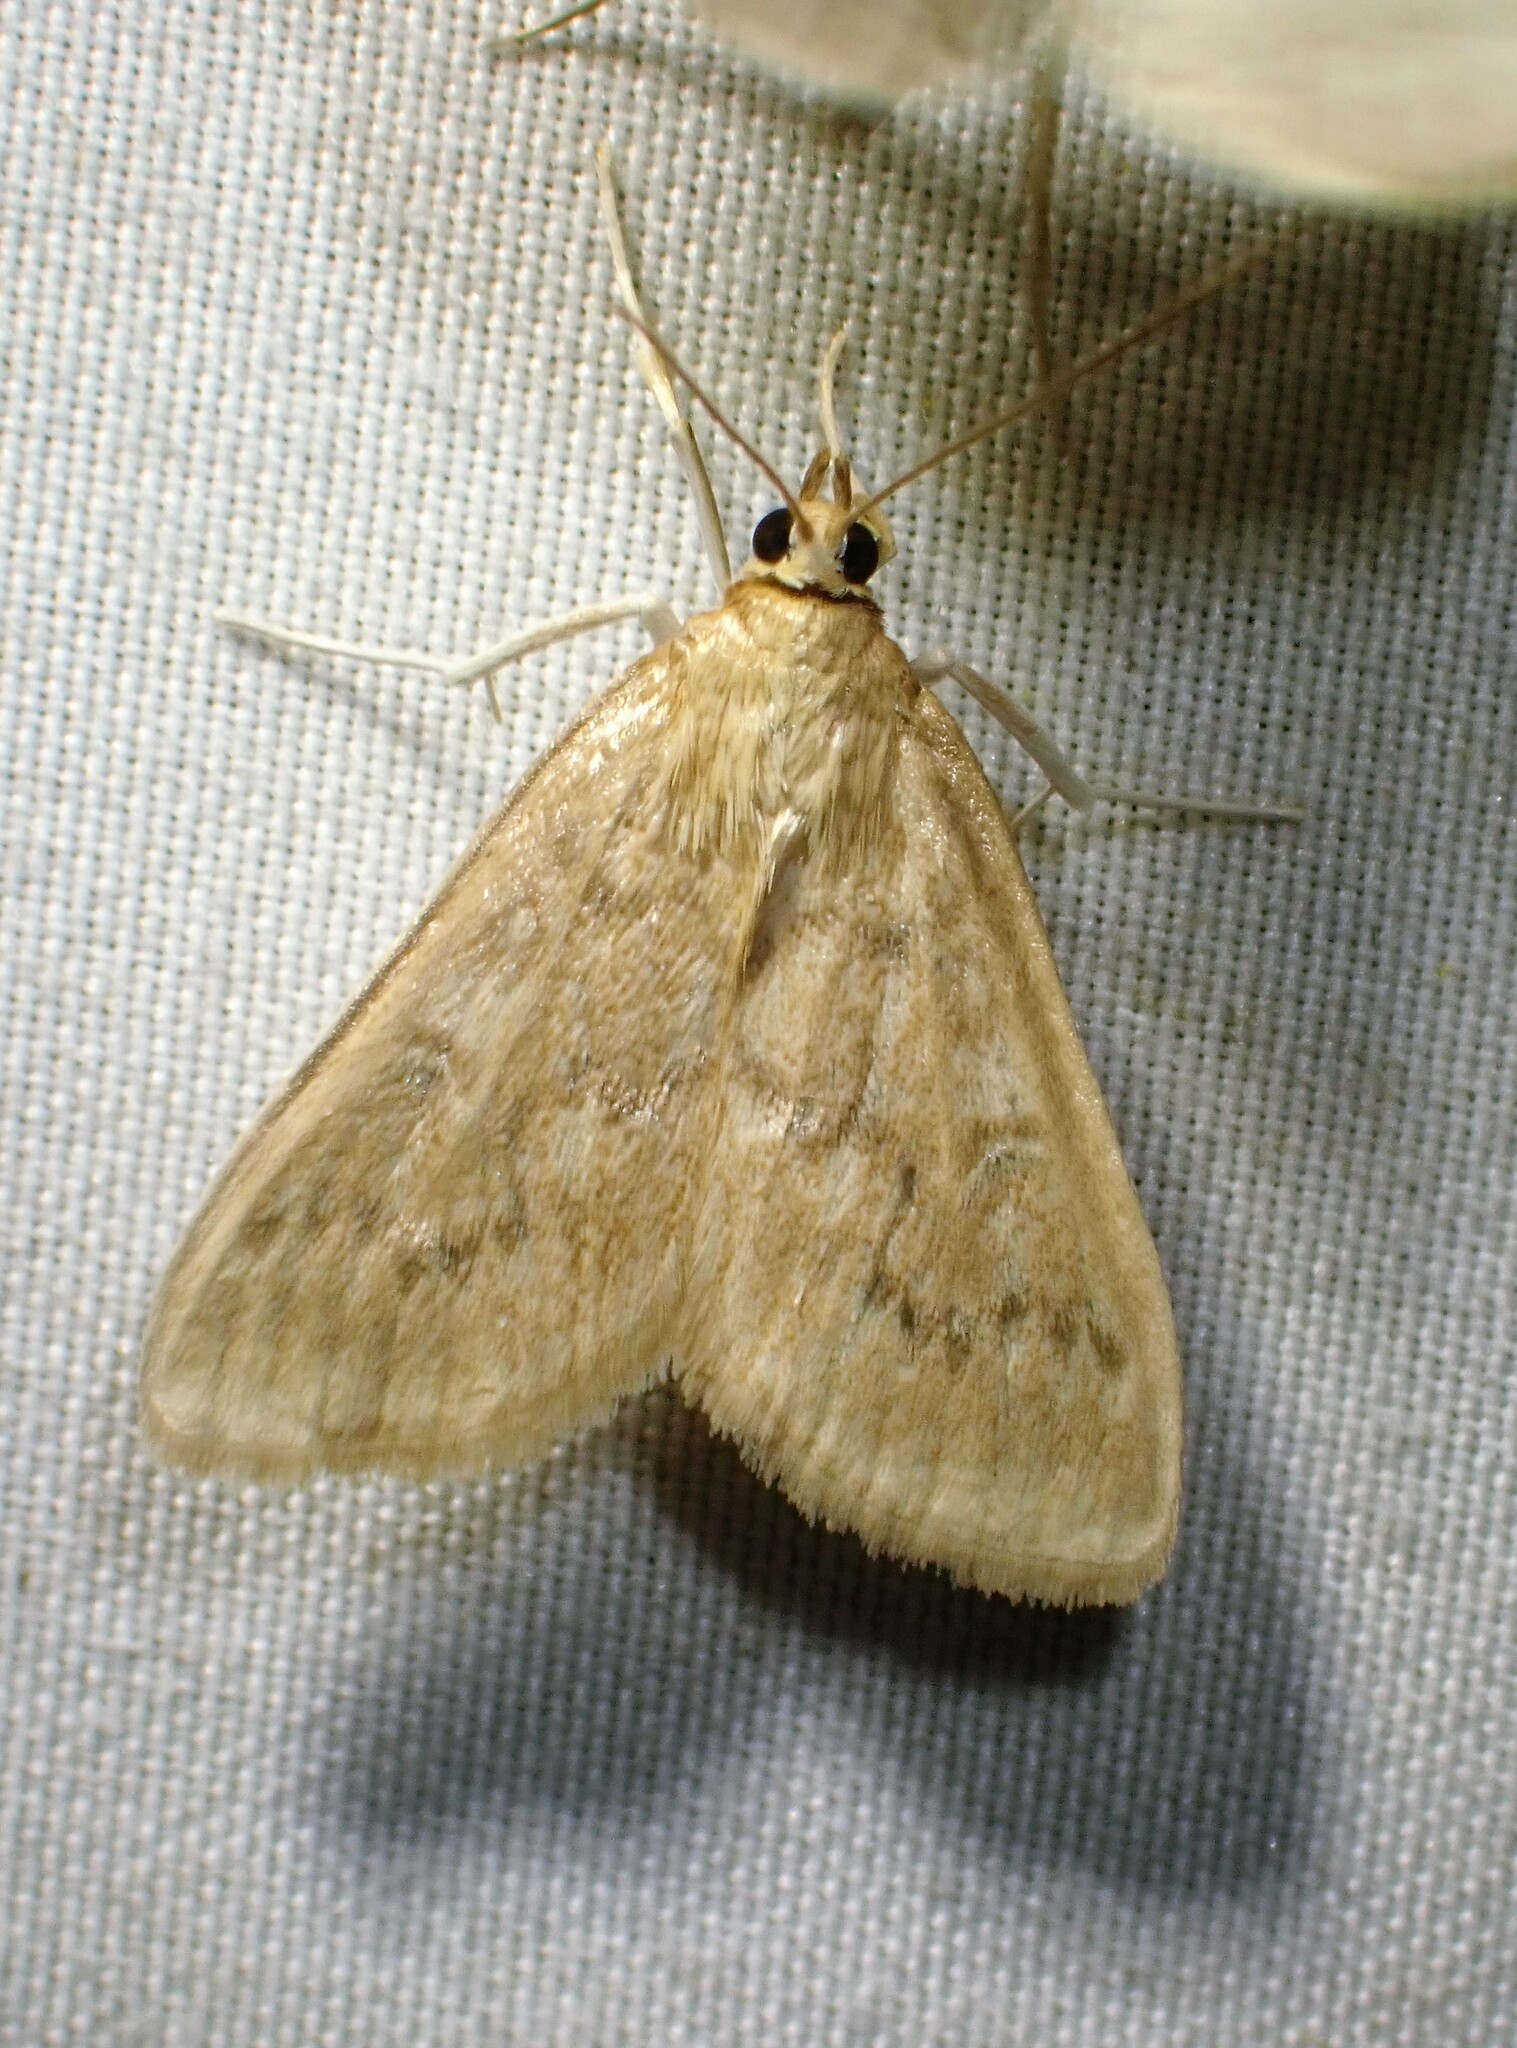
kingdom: Animalia
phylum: Arthropoda
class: Insecta
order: Lepidoptera
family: Crambidae
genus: Anania
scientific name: Anania Framinghamia helvalis
